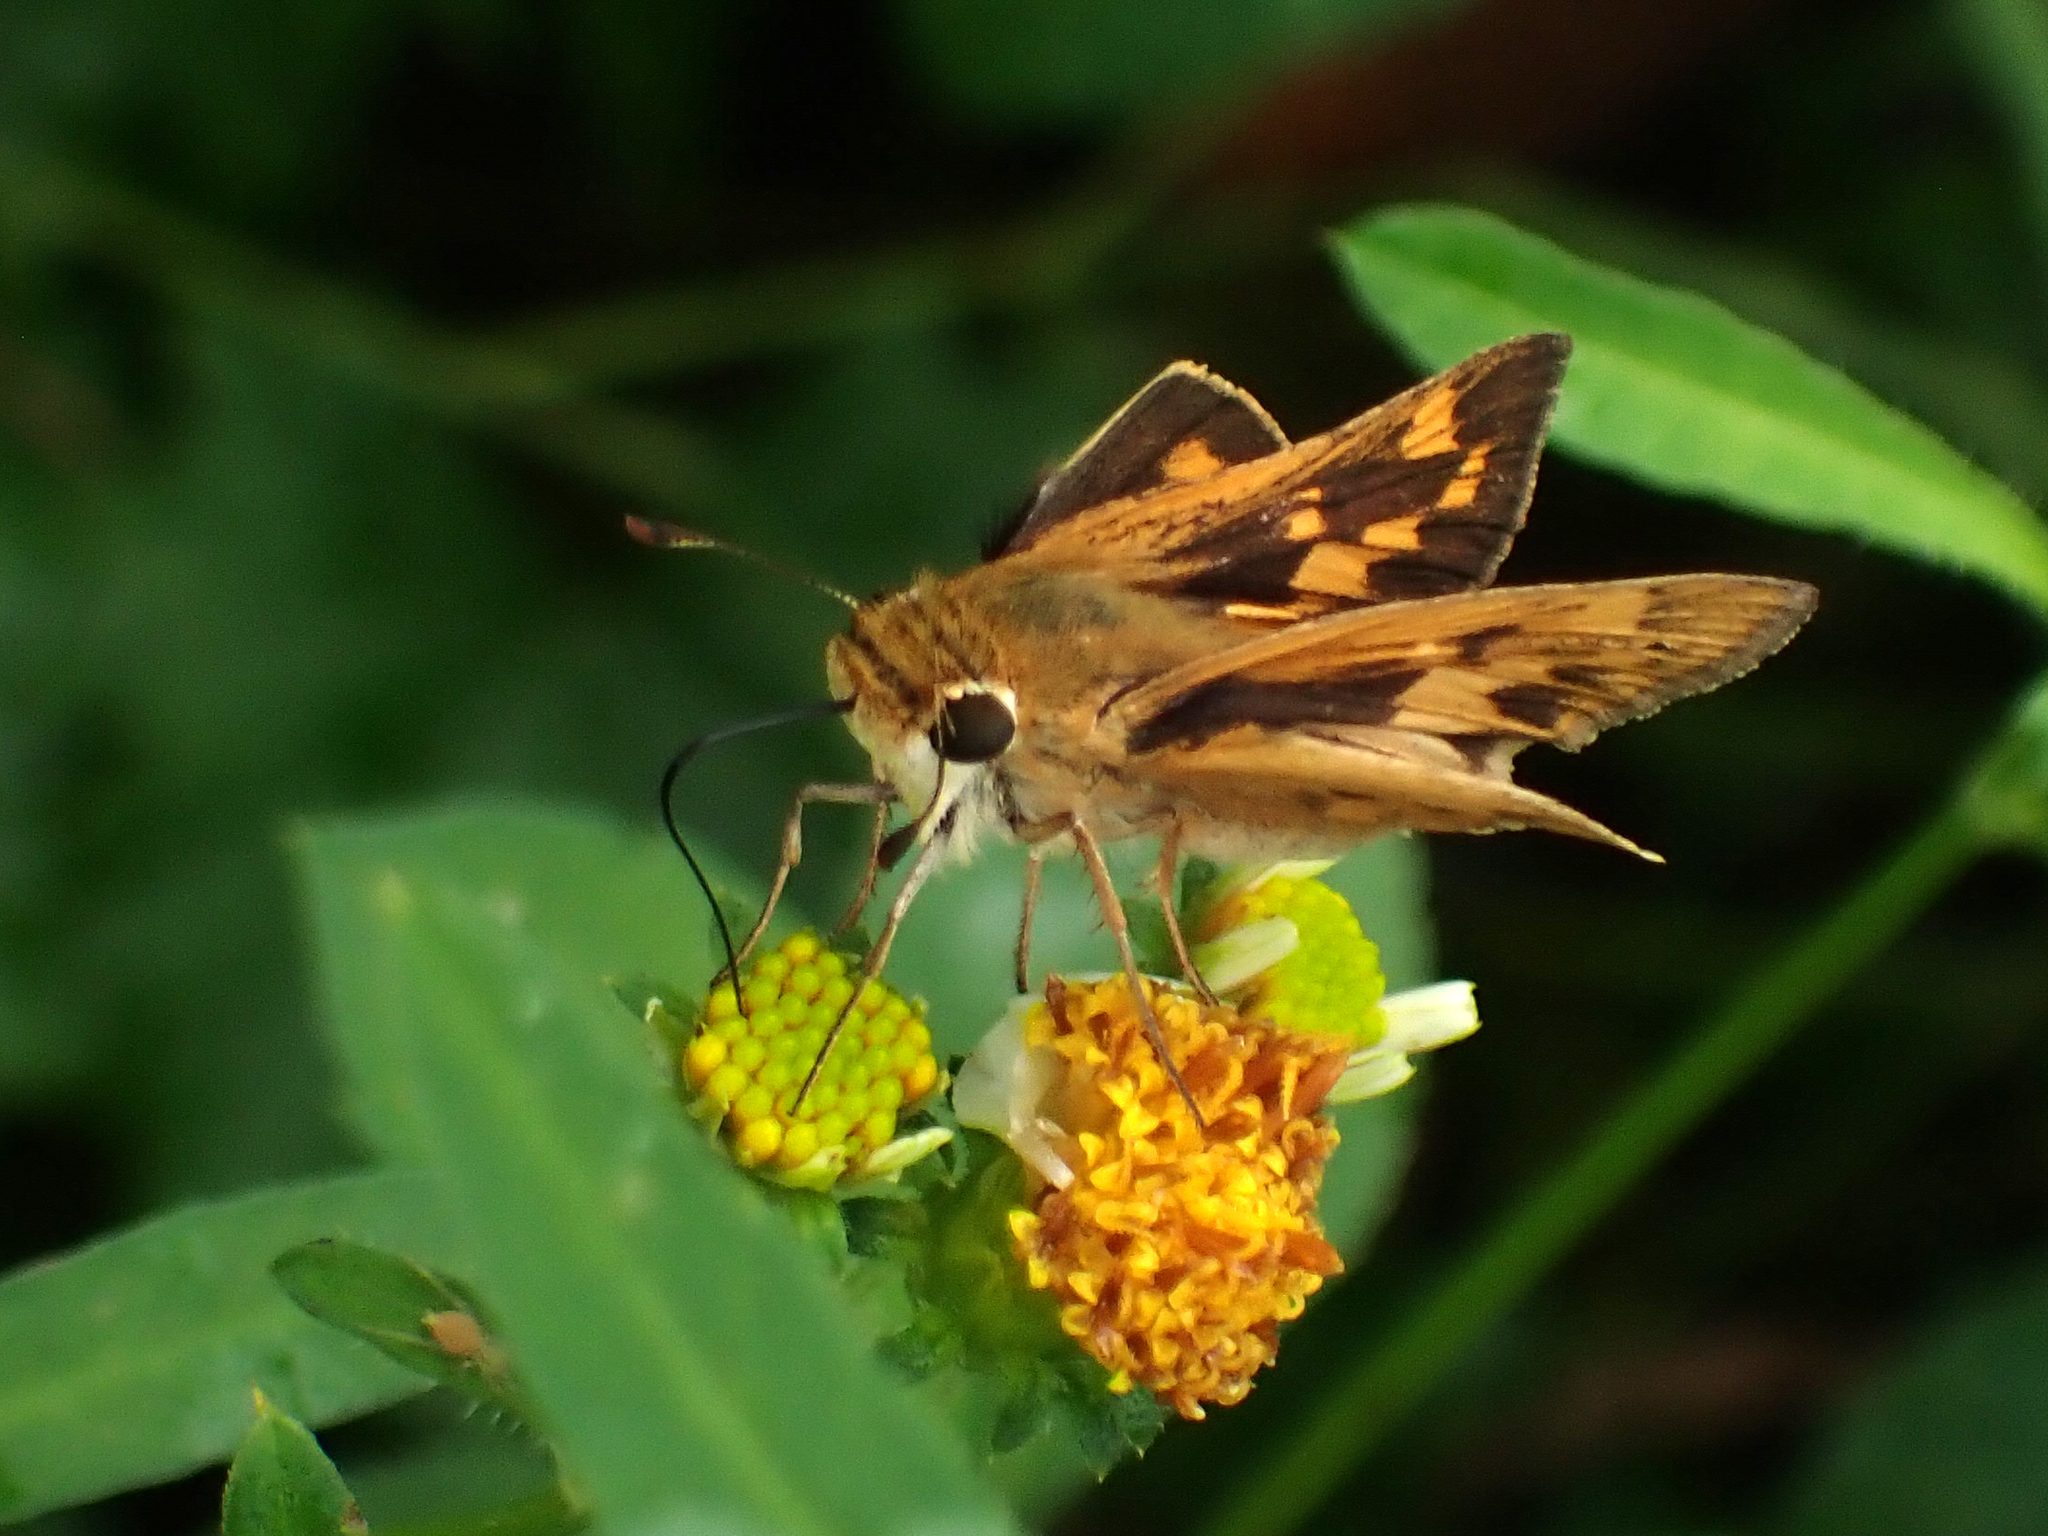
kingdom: Animalia
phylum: Arthropoda
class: Insecta
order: Lepidoptera
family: Hesperiidae
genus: Hylephila
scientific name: Hylephila phyleus
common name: Fiery skipper
